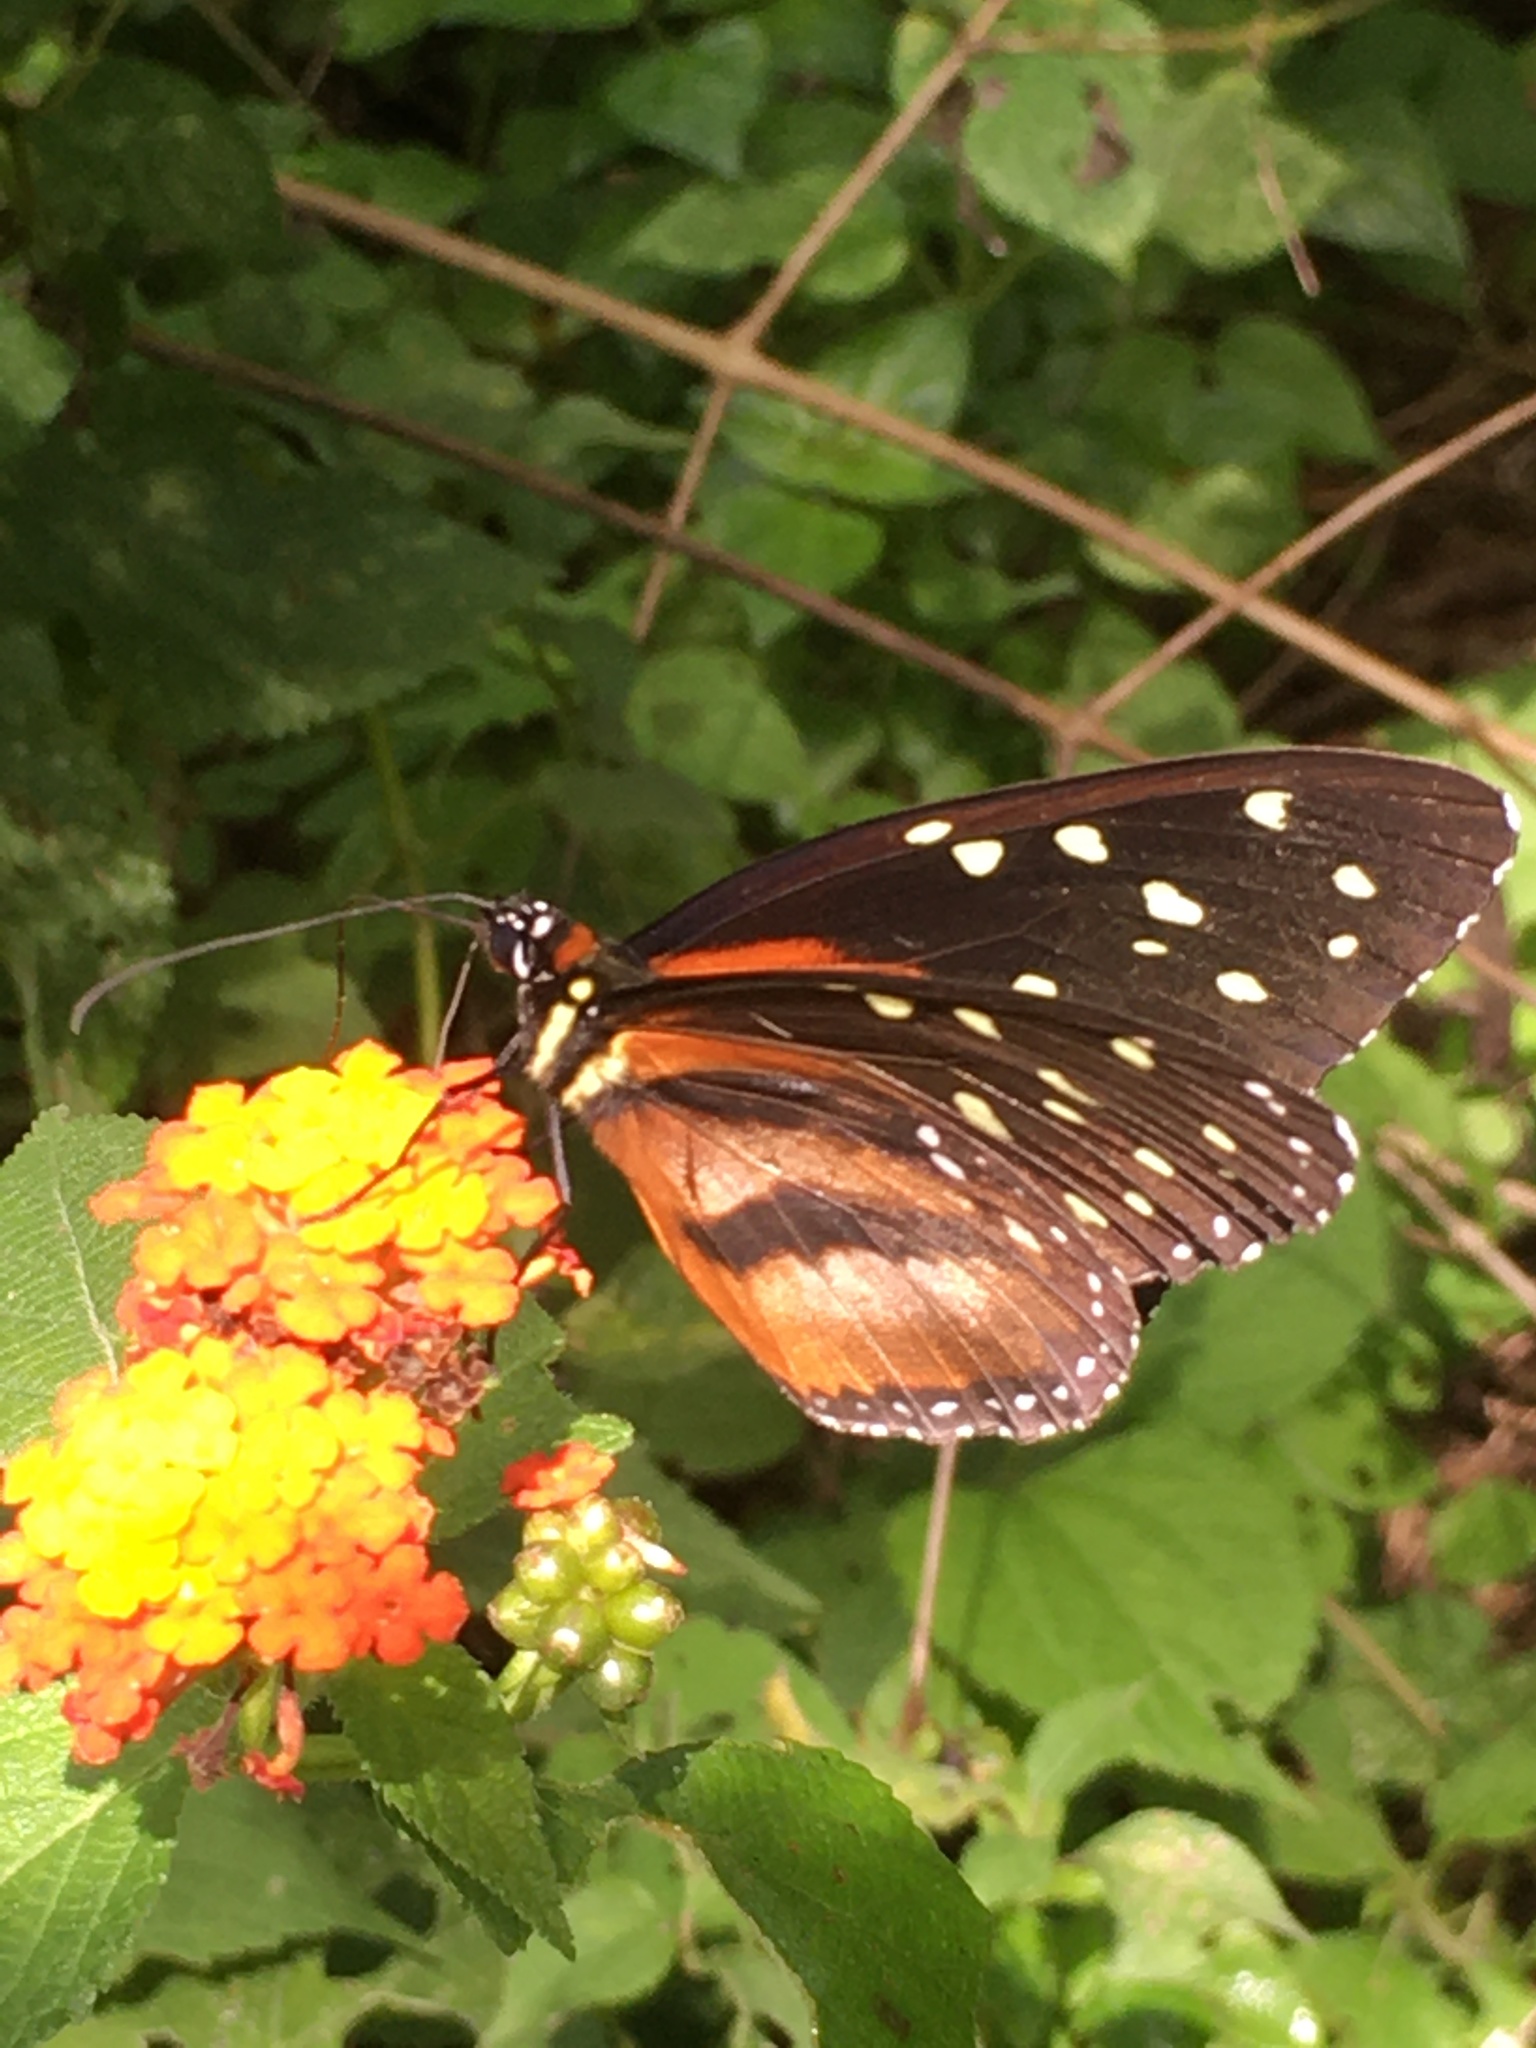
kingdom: Animalia
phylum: Arthropoda
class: Insecta
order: Lepidoptera
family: Nymphalidae
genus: Tithorea
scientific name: Tithorea tarricina
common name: Cream-spotted tigerwing
